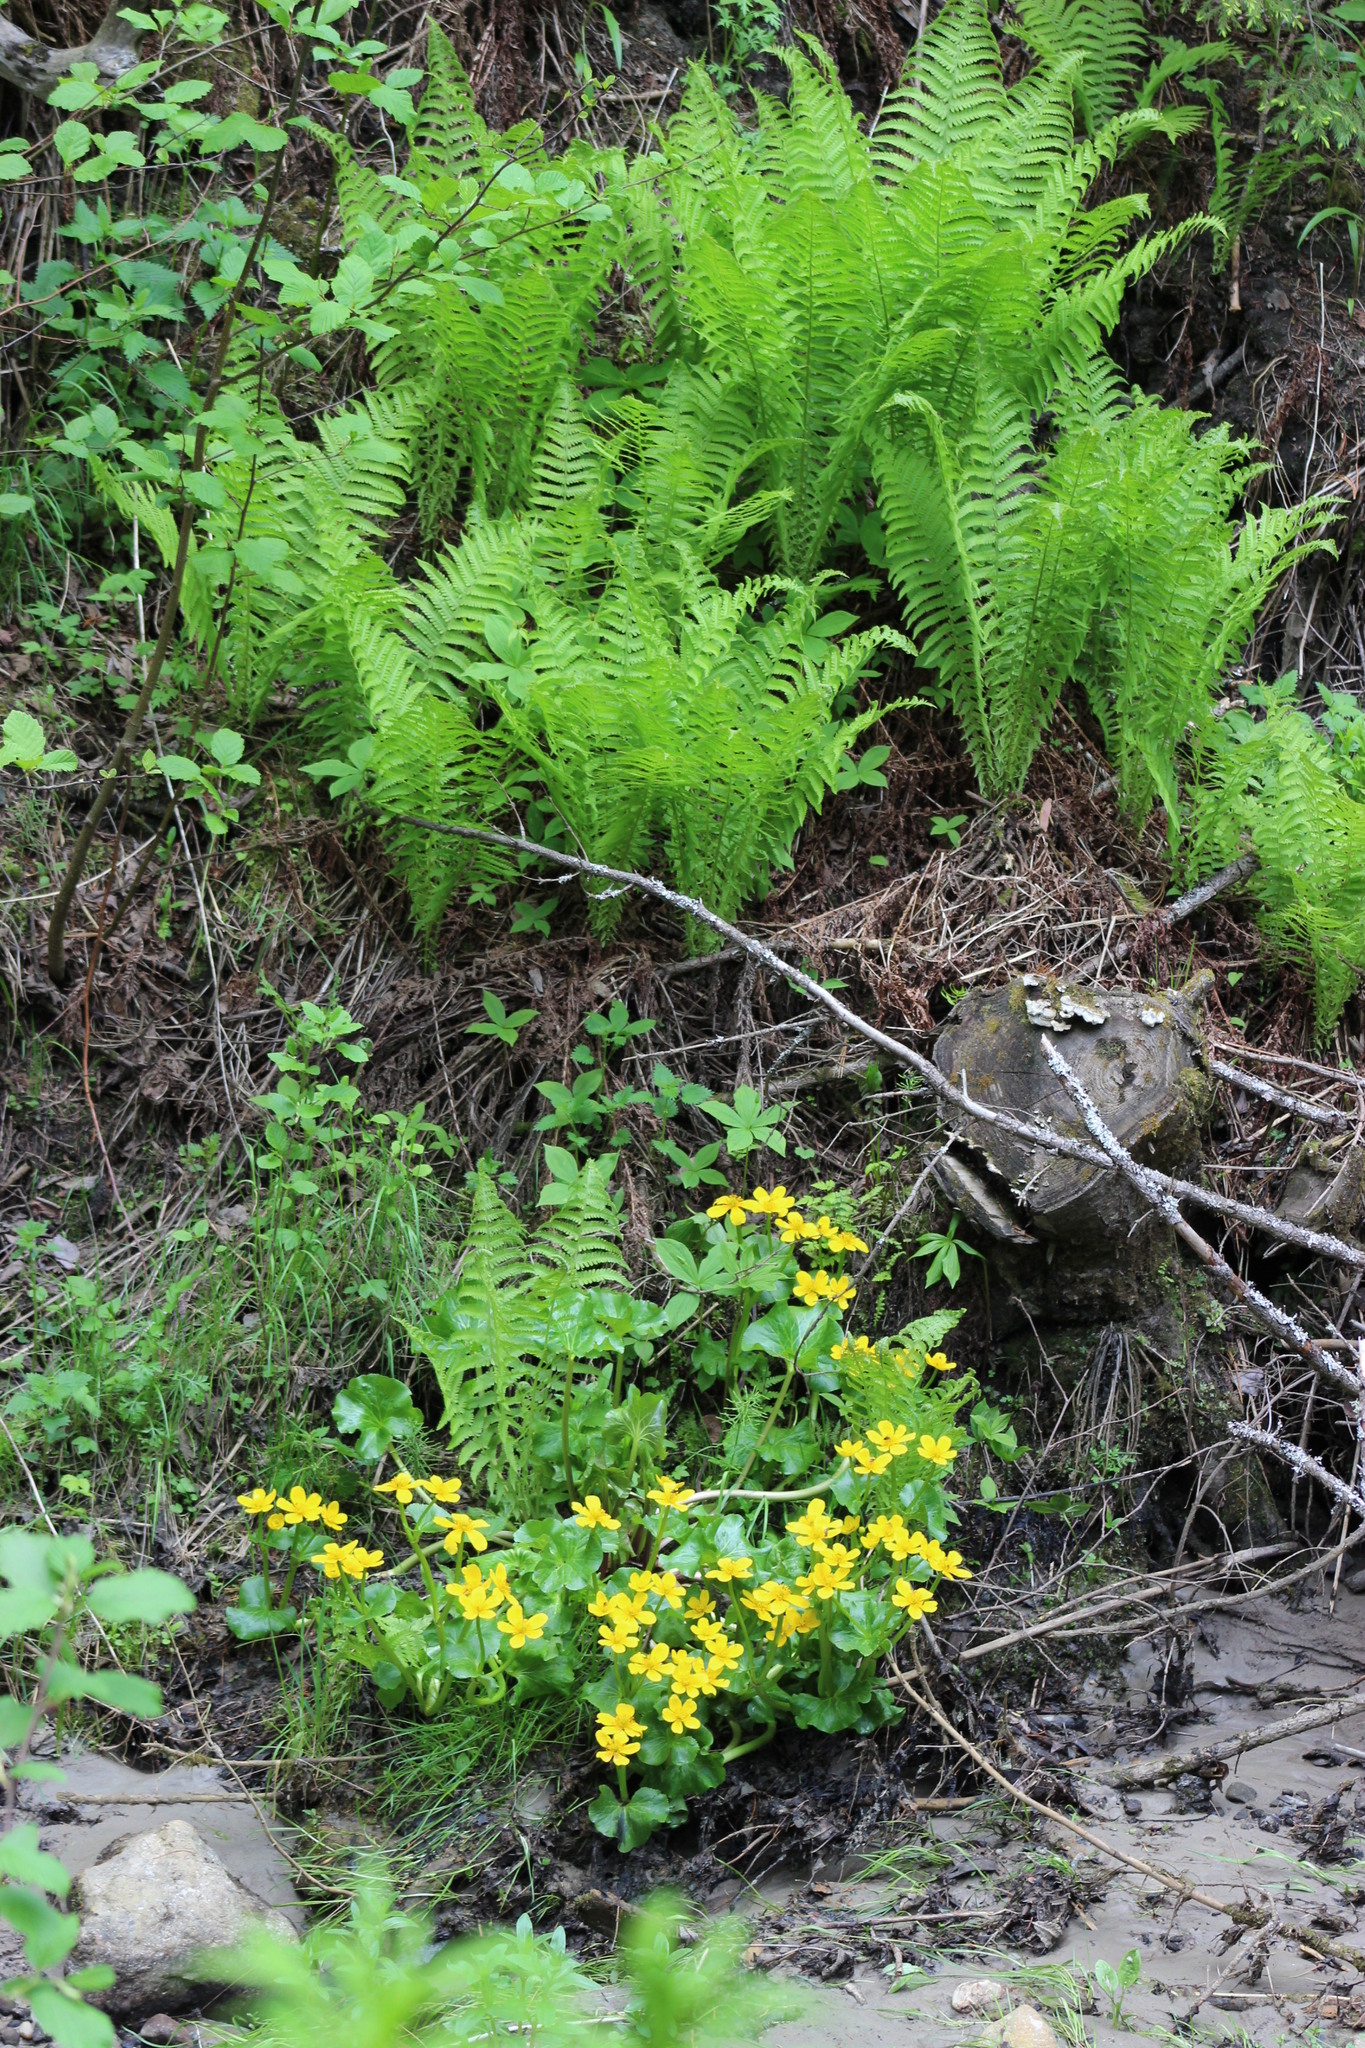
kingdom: Plantae
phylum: Tracheophyta
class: Magnoliopsida
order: Ranunculales
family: Ranunculaceae
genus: Caltha
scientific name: Caltha palustris
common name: Marsh marigold
